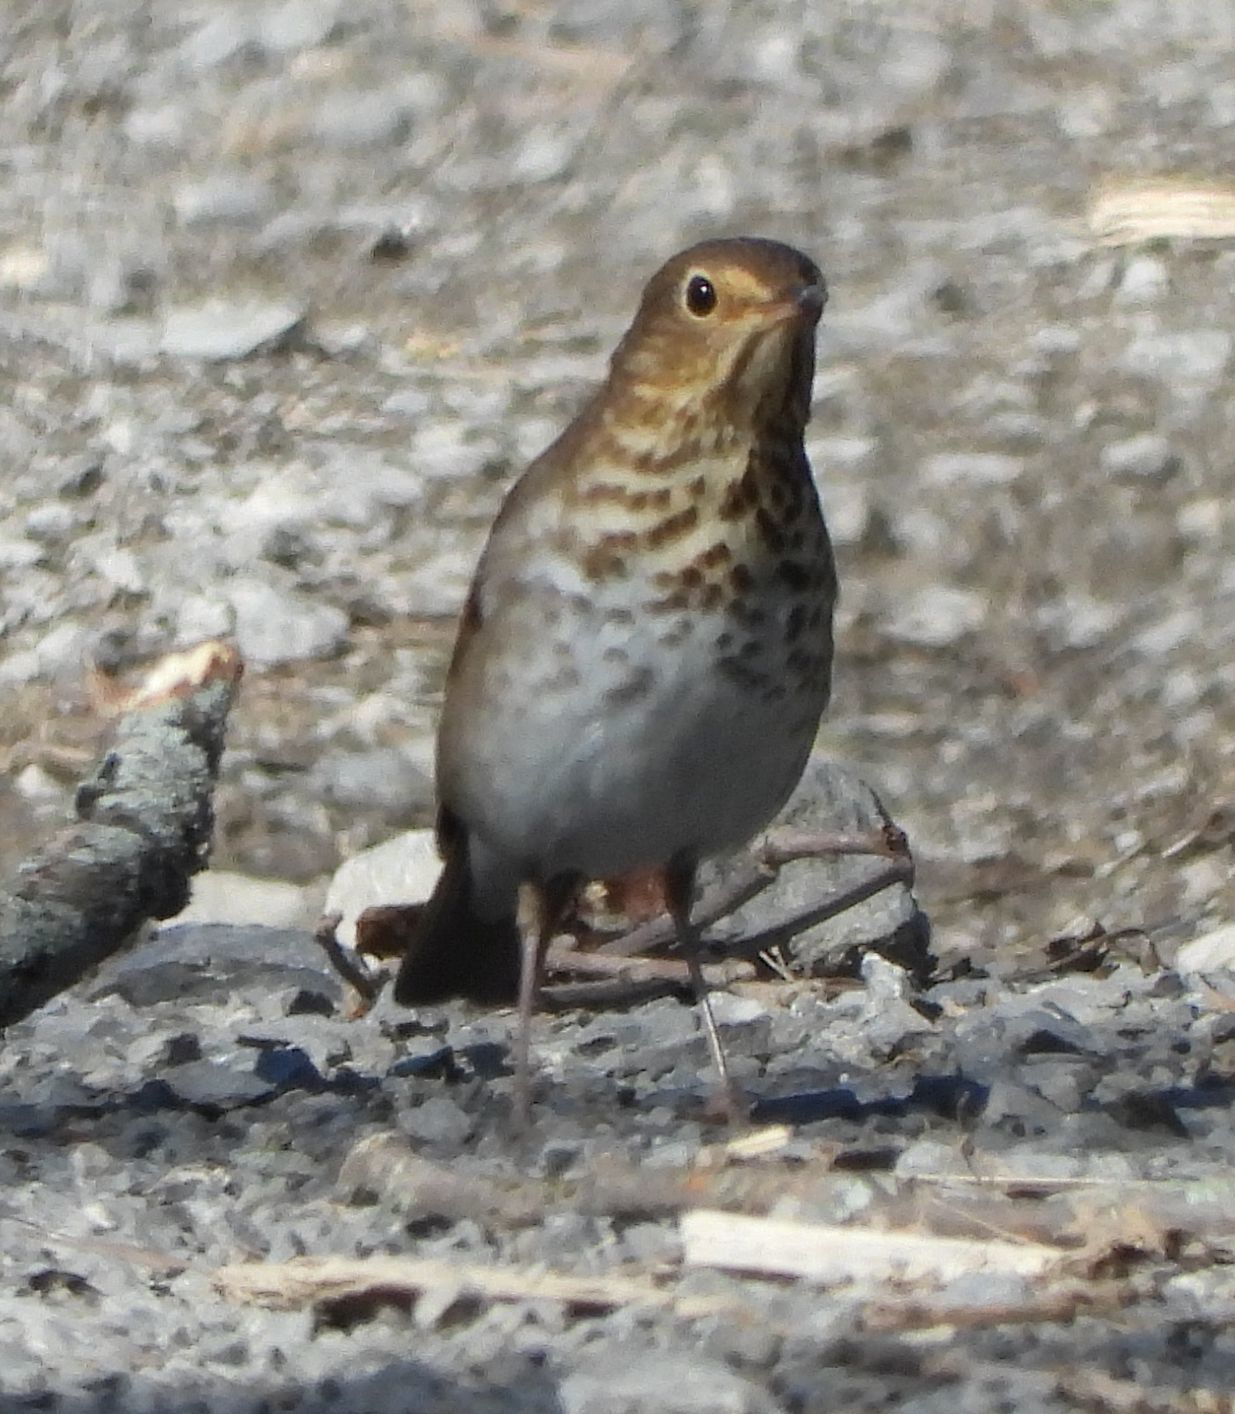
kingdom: Animalia
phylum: Chordata
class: Aves
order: Passeriformes
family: Turdidae
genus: Catharus
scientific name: Catharus ustulatus
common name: Swainson's thrush
